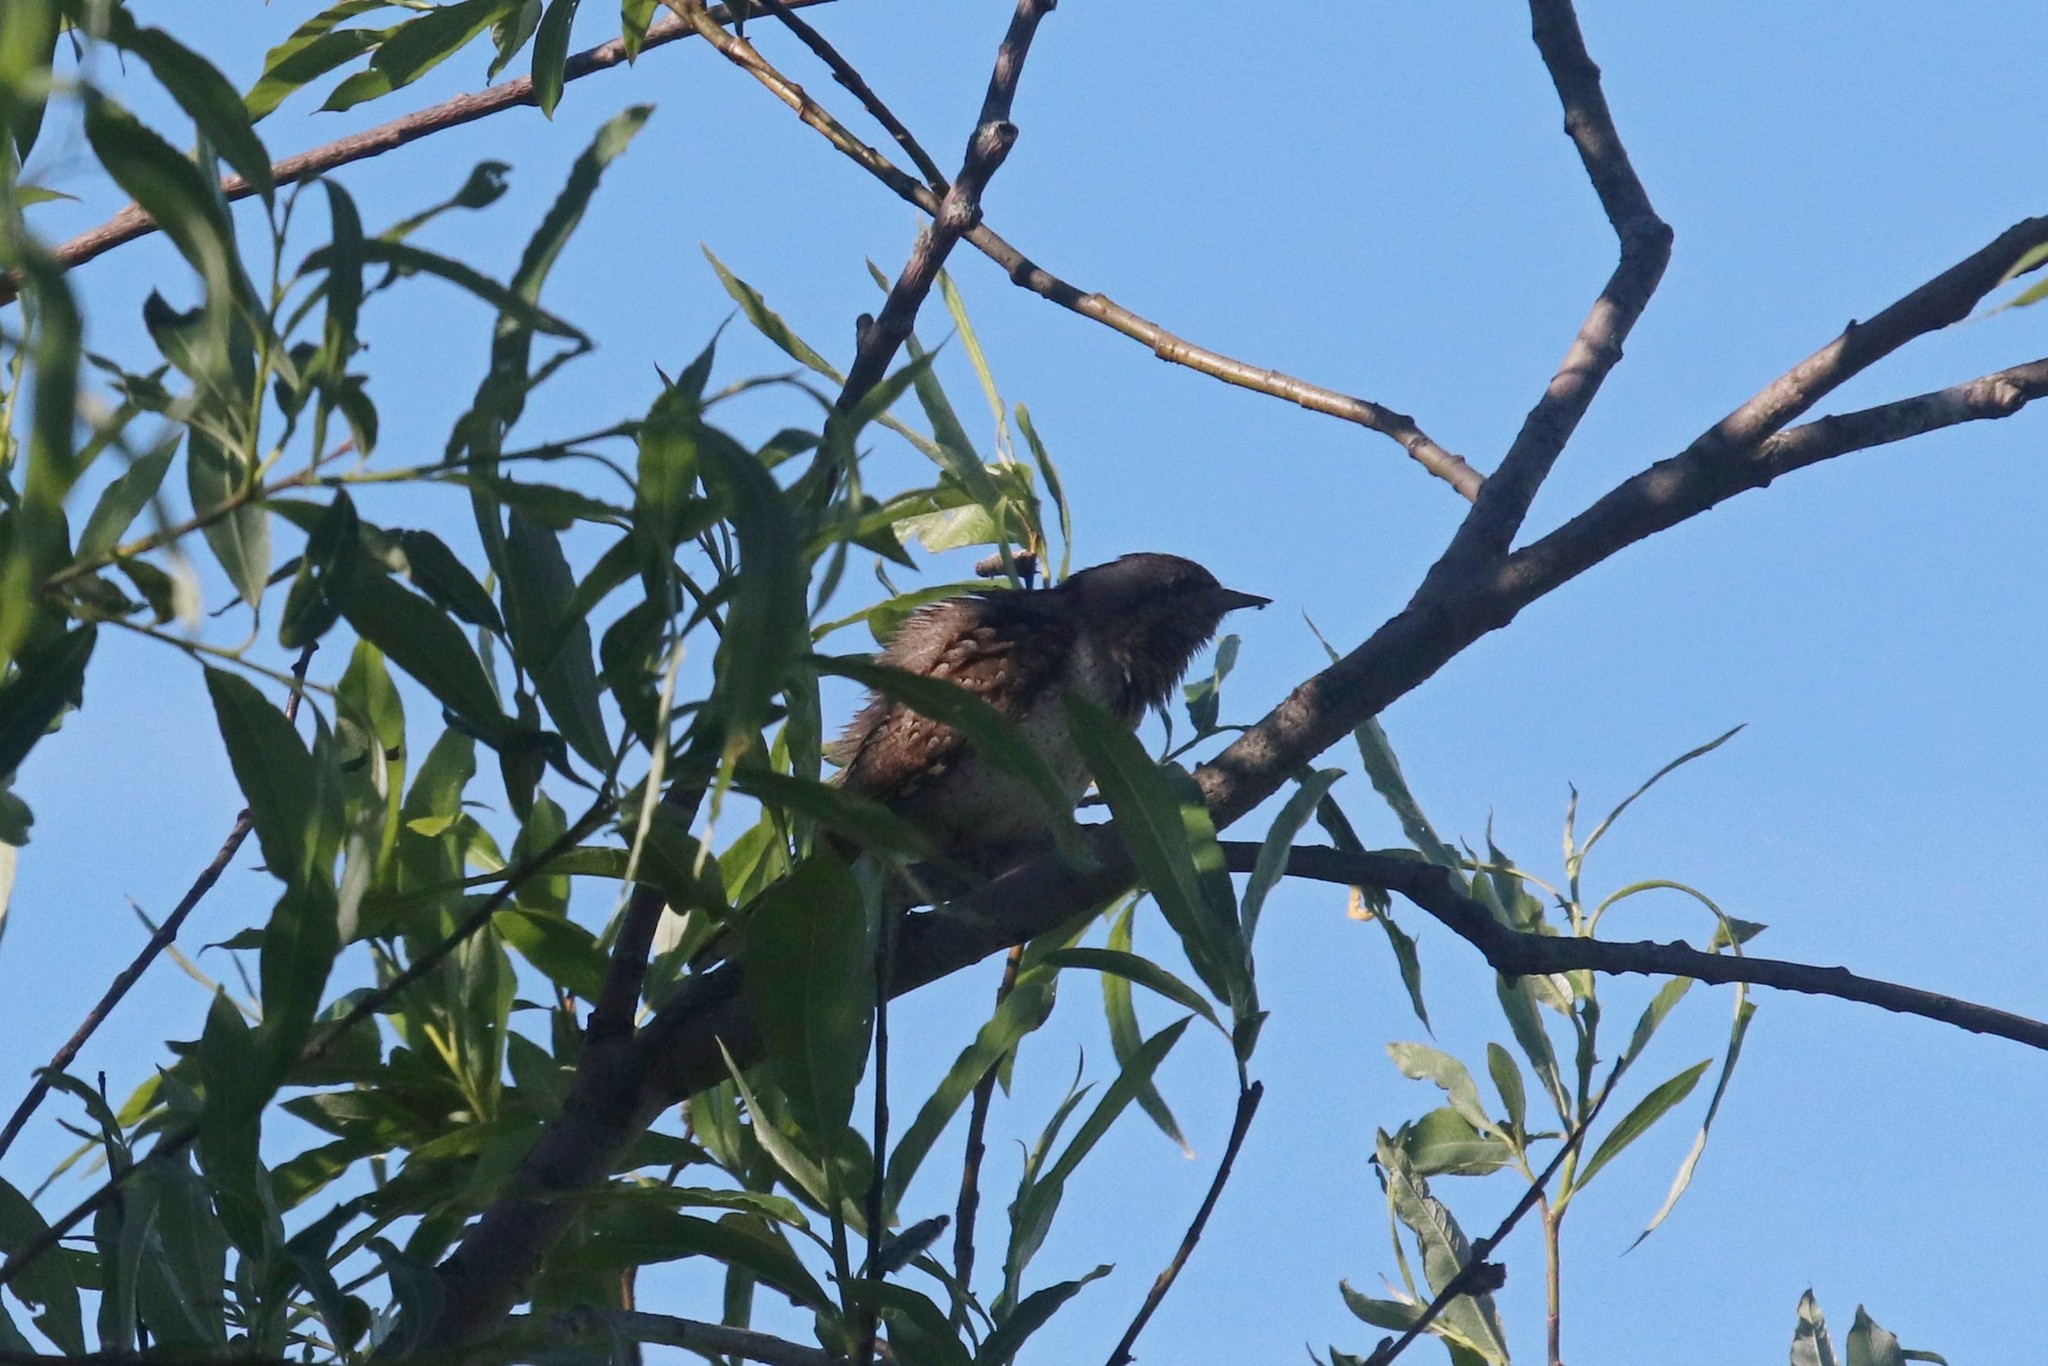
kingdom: Animalia
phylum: Chordata
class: Aves
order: Piciformes
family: Picidae
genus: Jynx
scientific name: Jynx torquilla
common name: Eurasian wryneck
